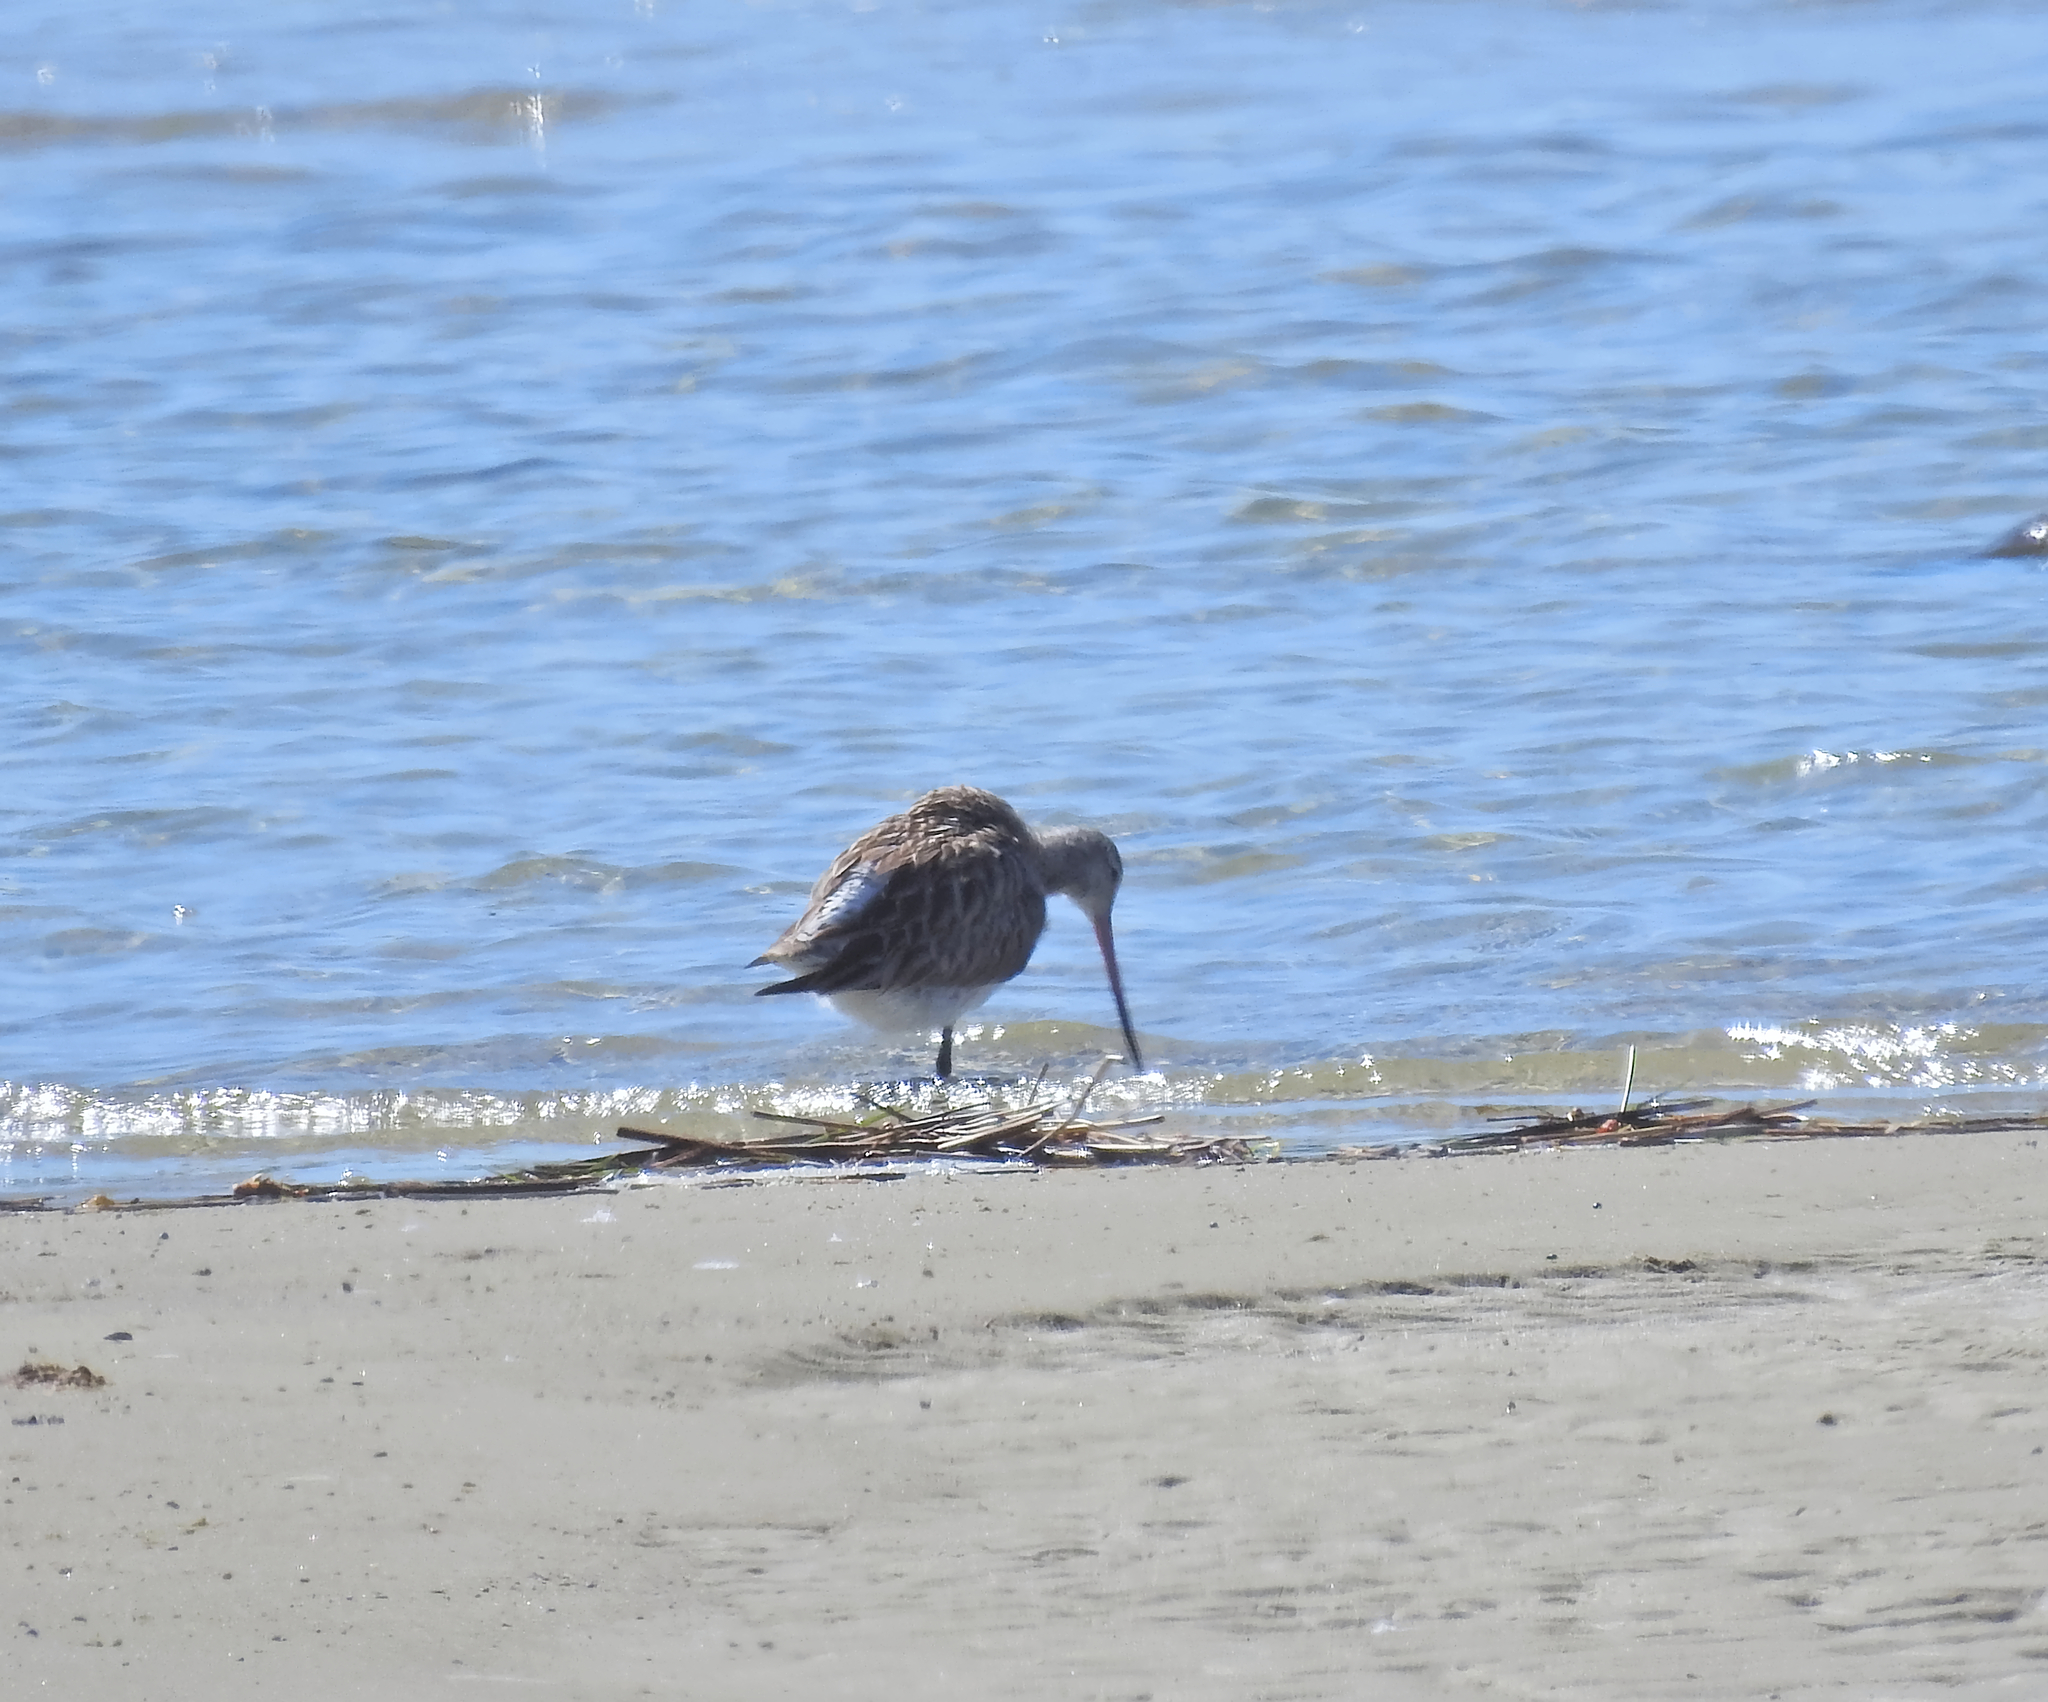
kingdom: Animalia
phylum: Chordata
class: Aves
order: Charadriiformes
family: Scolopacidae
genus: Limosa
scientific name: Limosa lapponica
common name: Bar-tailed godwit
